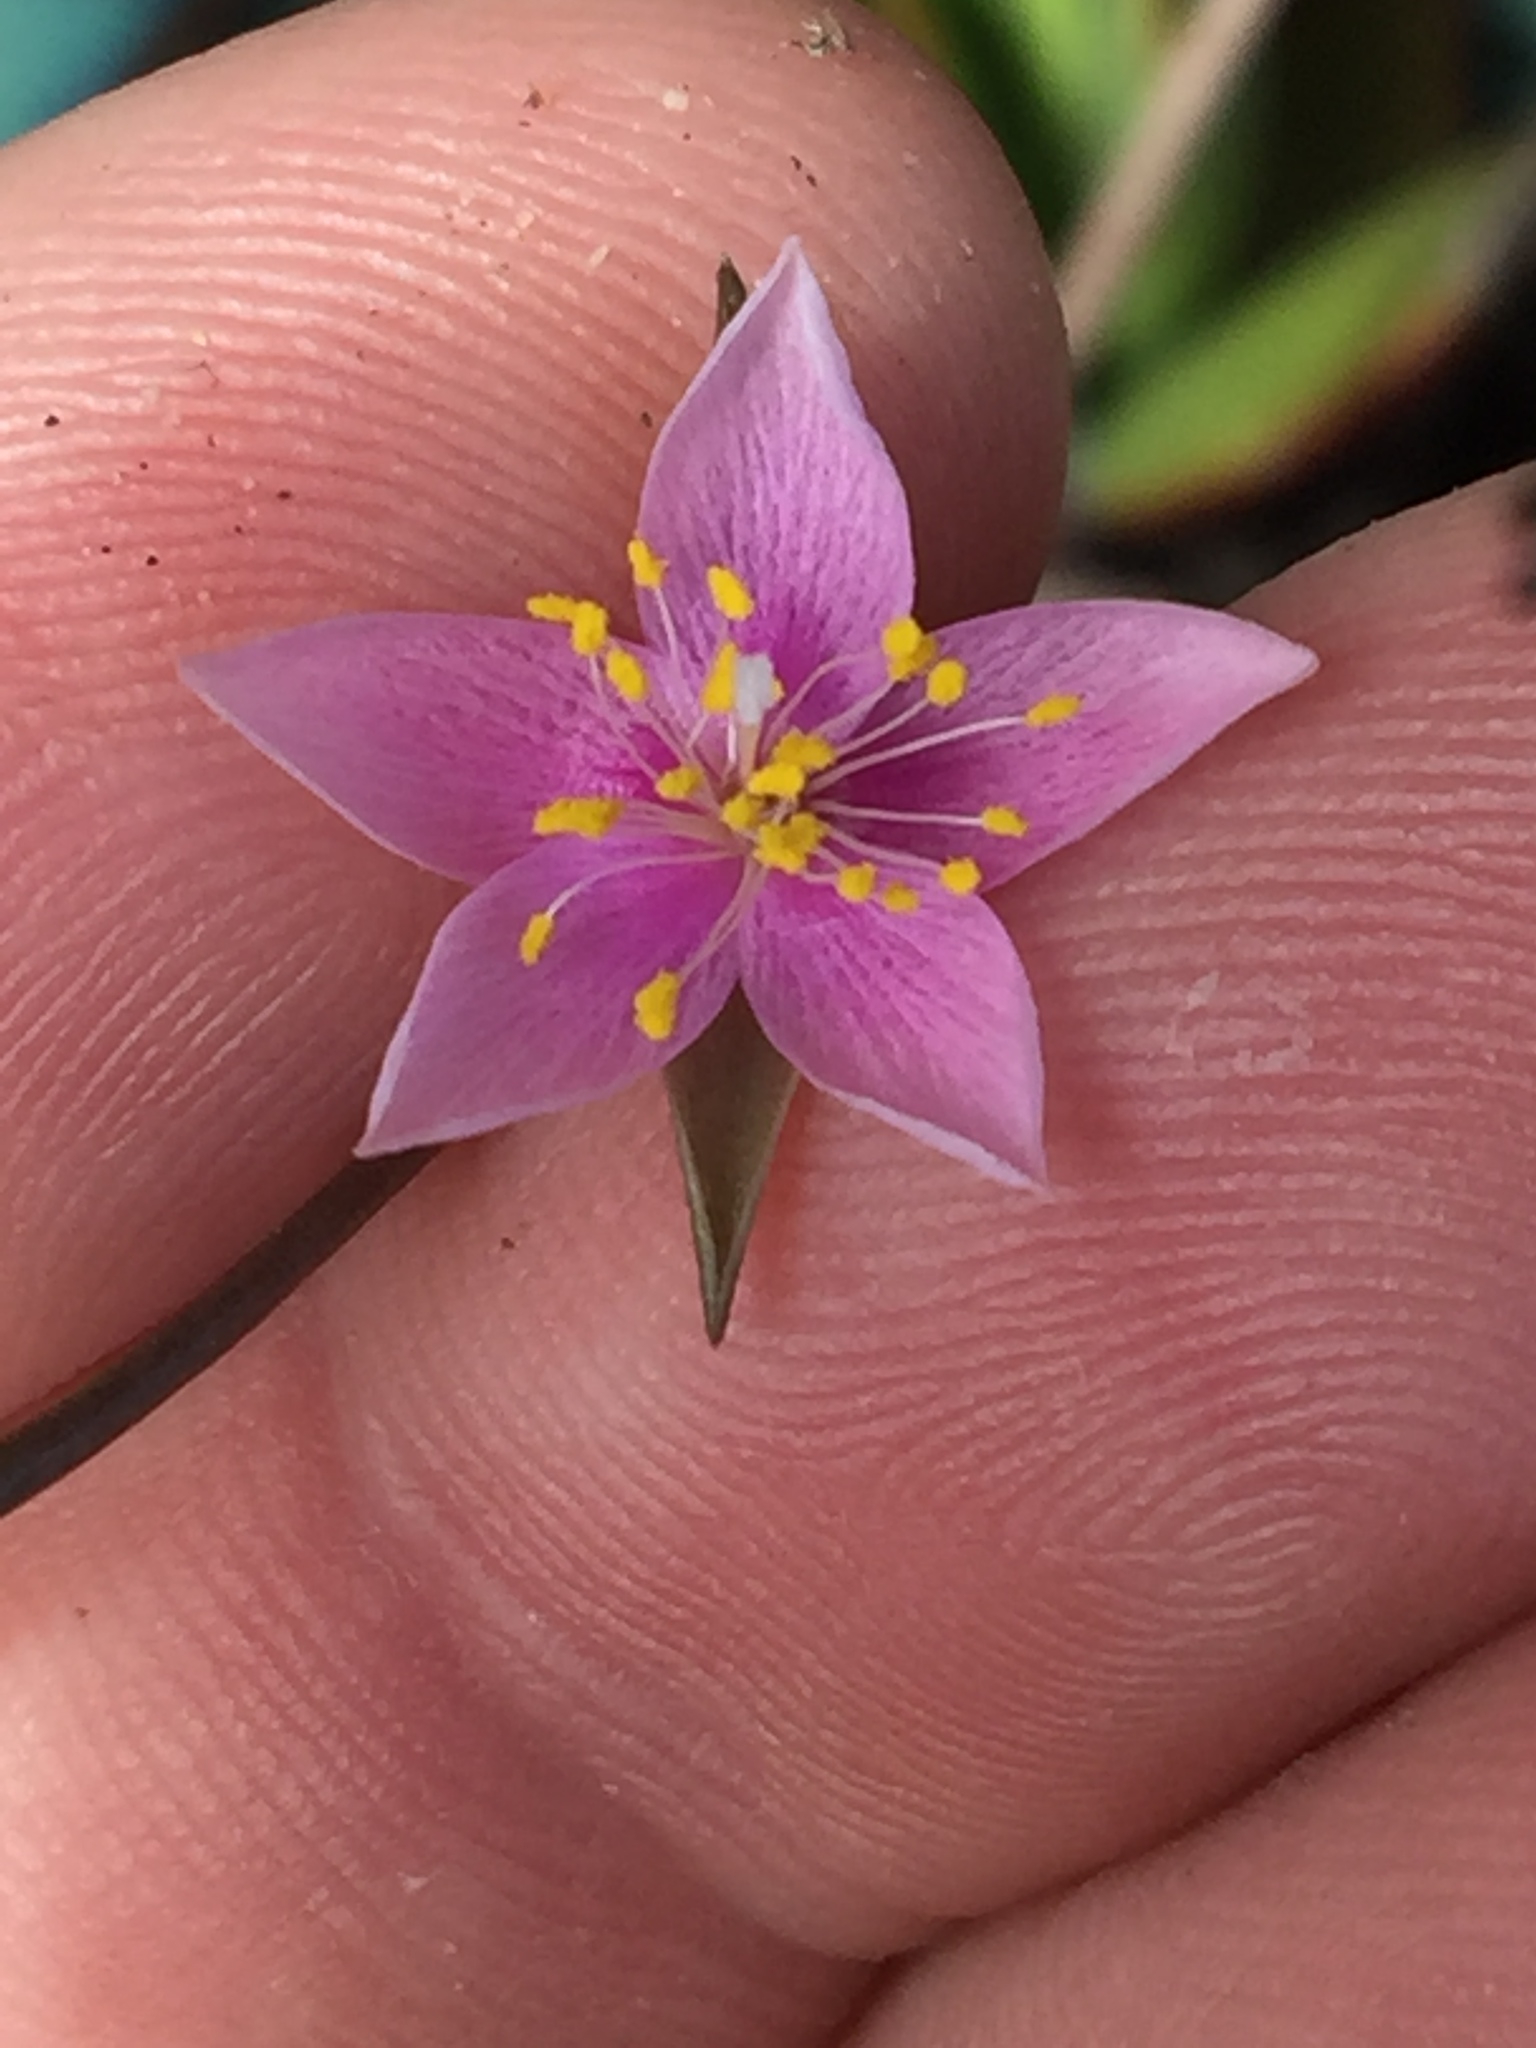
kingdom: Plantae
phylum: Tracheophyta
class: Magnoliopsida
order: Caryophyllales
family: Anacampserotaceae
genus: Anacampseros
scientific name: Anacampseros arachnoides
